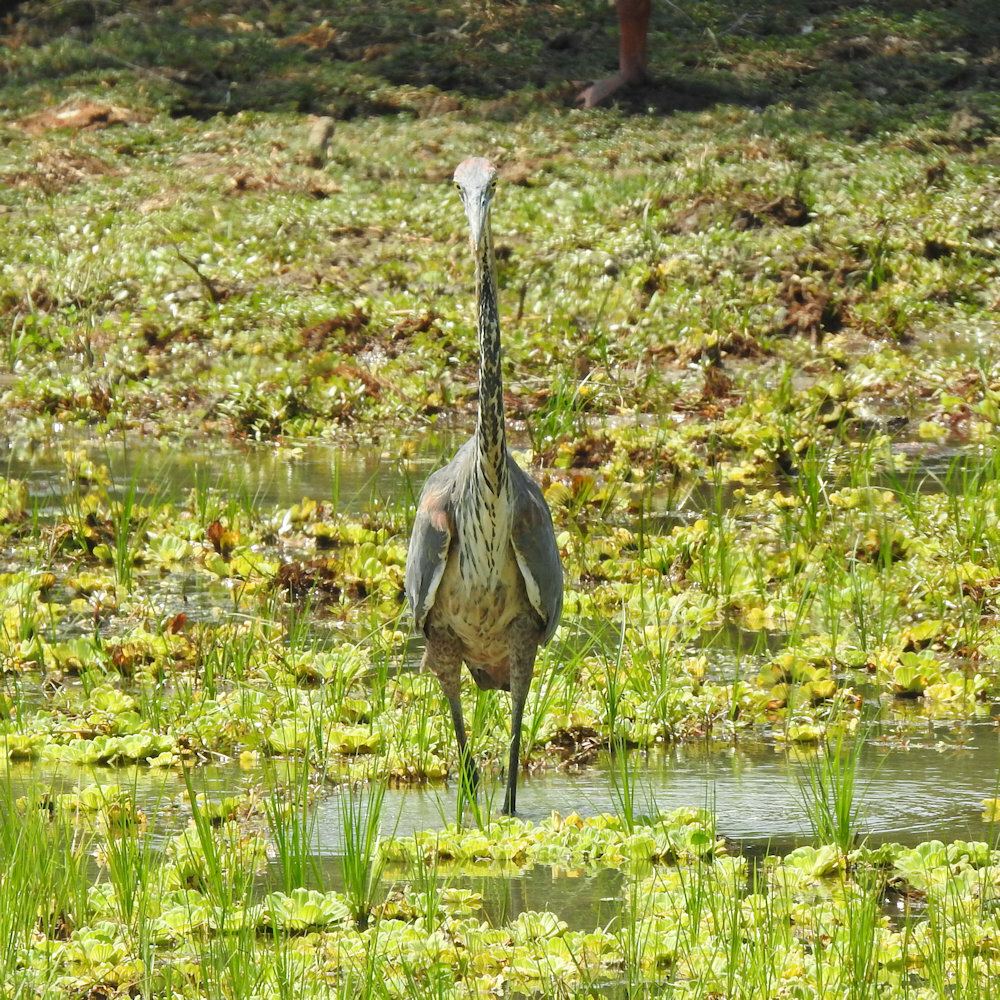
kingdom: Animalia
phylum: Chordata
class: Aves
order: Pelecaniformes
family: Ardeidae
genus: Ardea
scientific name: Ardea goliath
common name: Goliath heron
